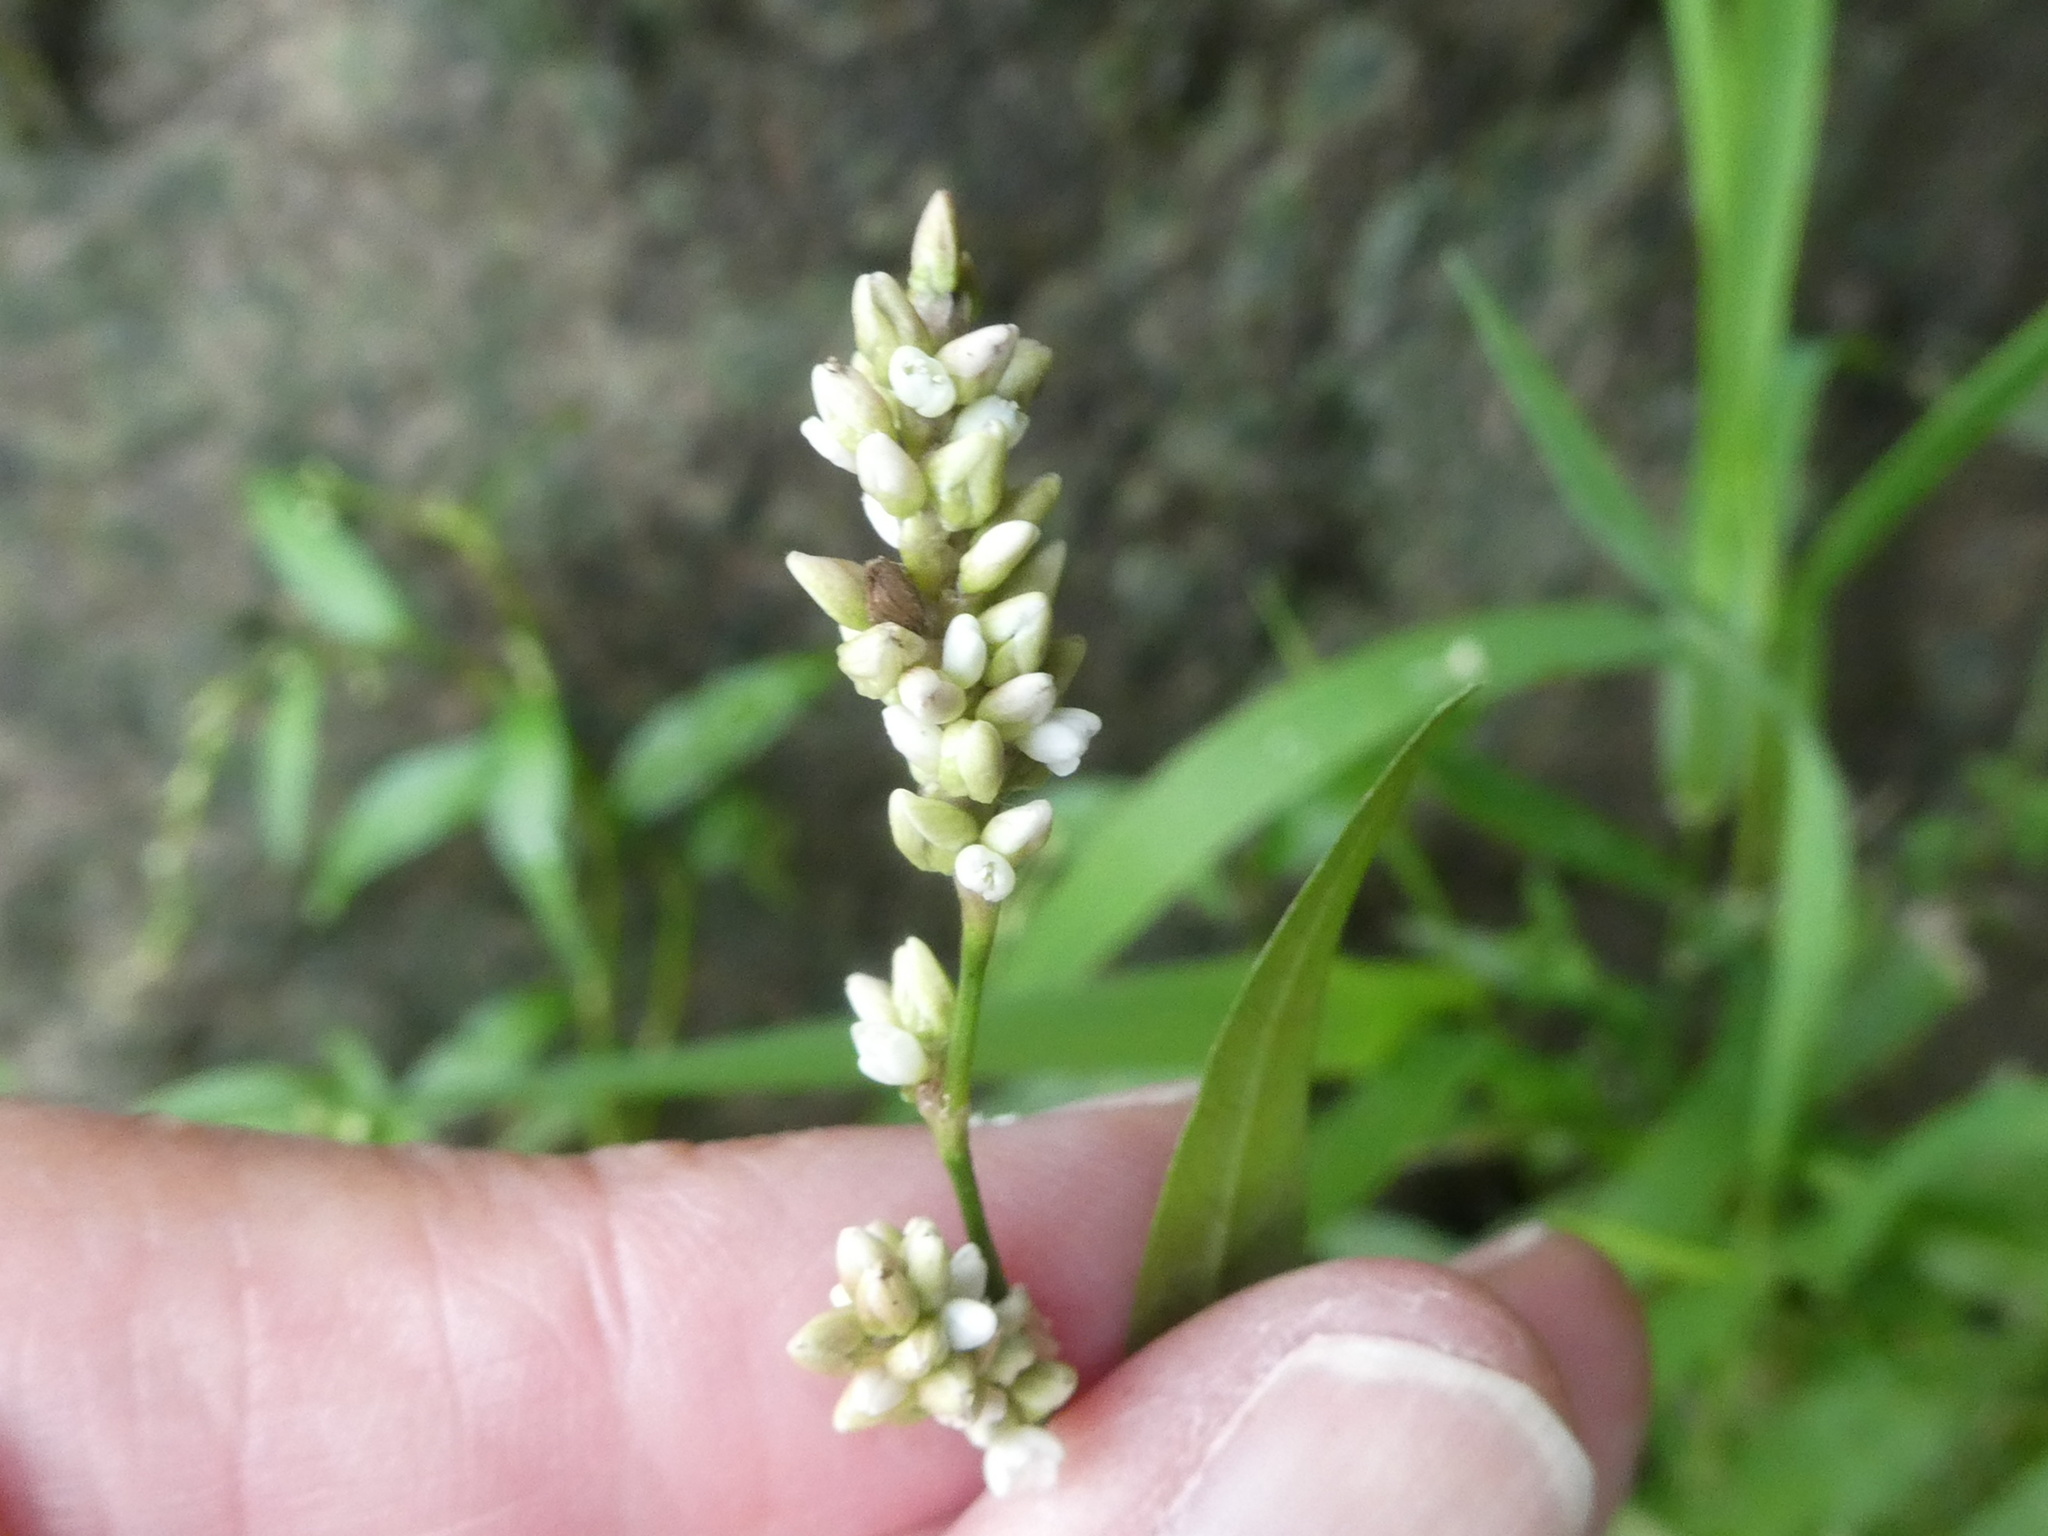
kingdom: Plantae
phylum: Tracheophyta
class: Magnoliopsida
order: Caryophyllales
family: Polygonaceae
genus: Persicaria
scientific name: Persicaria maculosa
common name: Redshank
